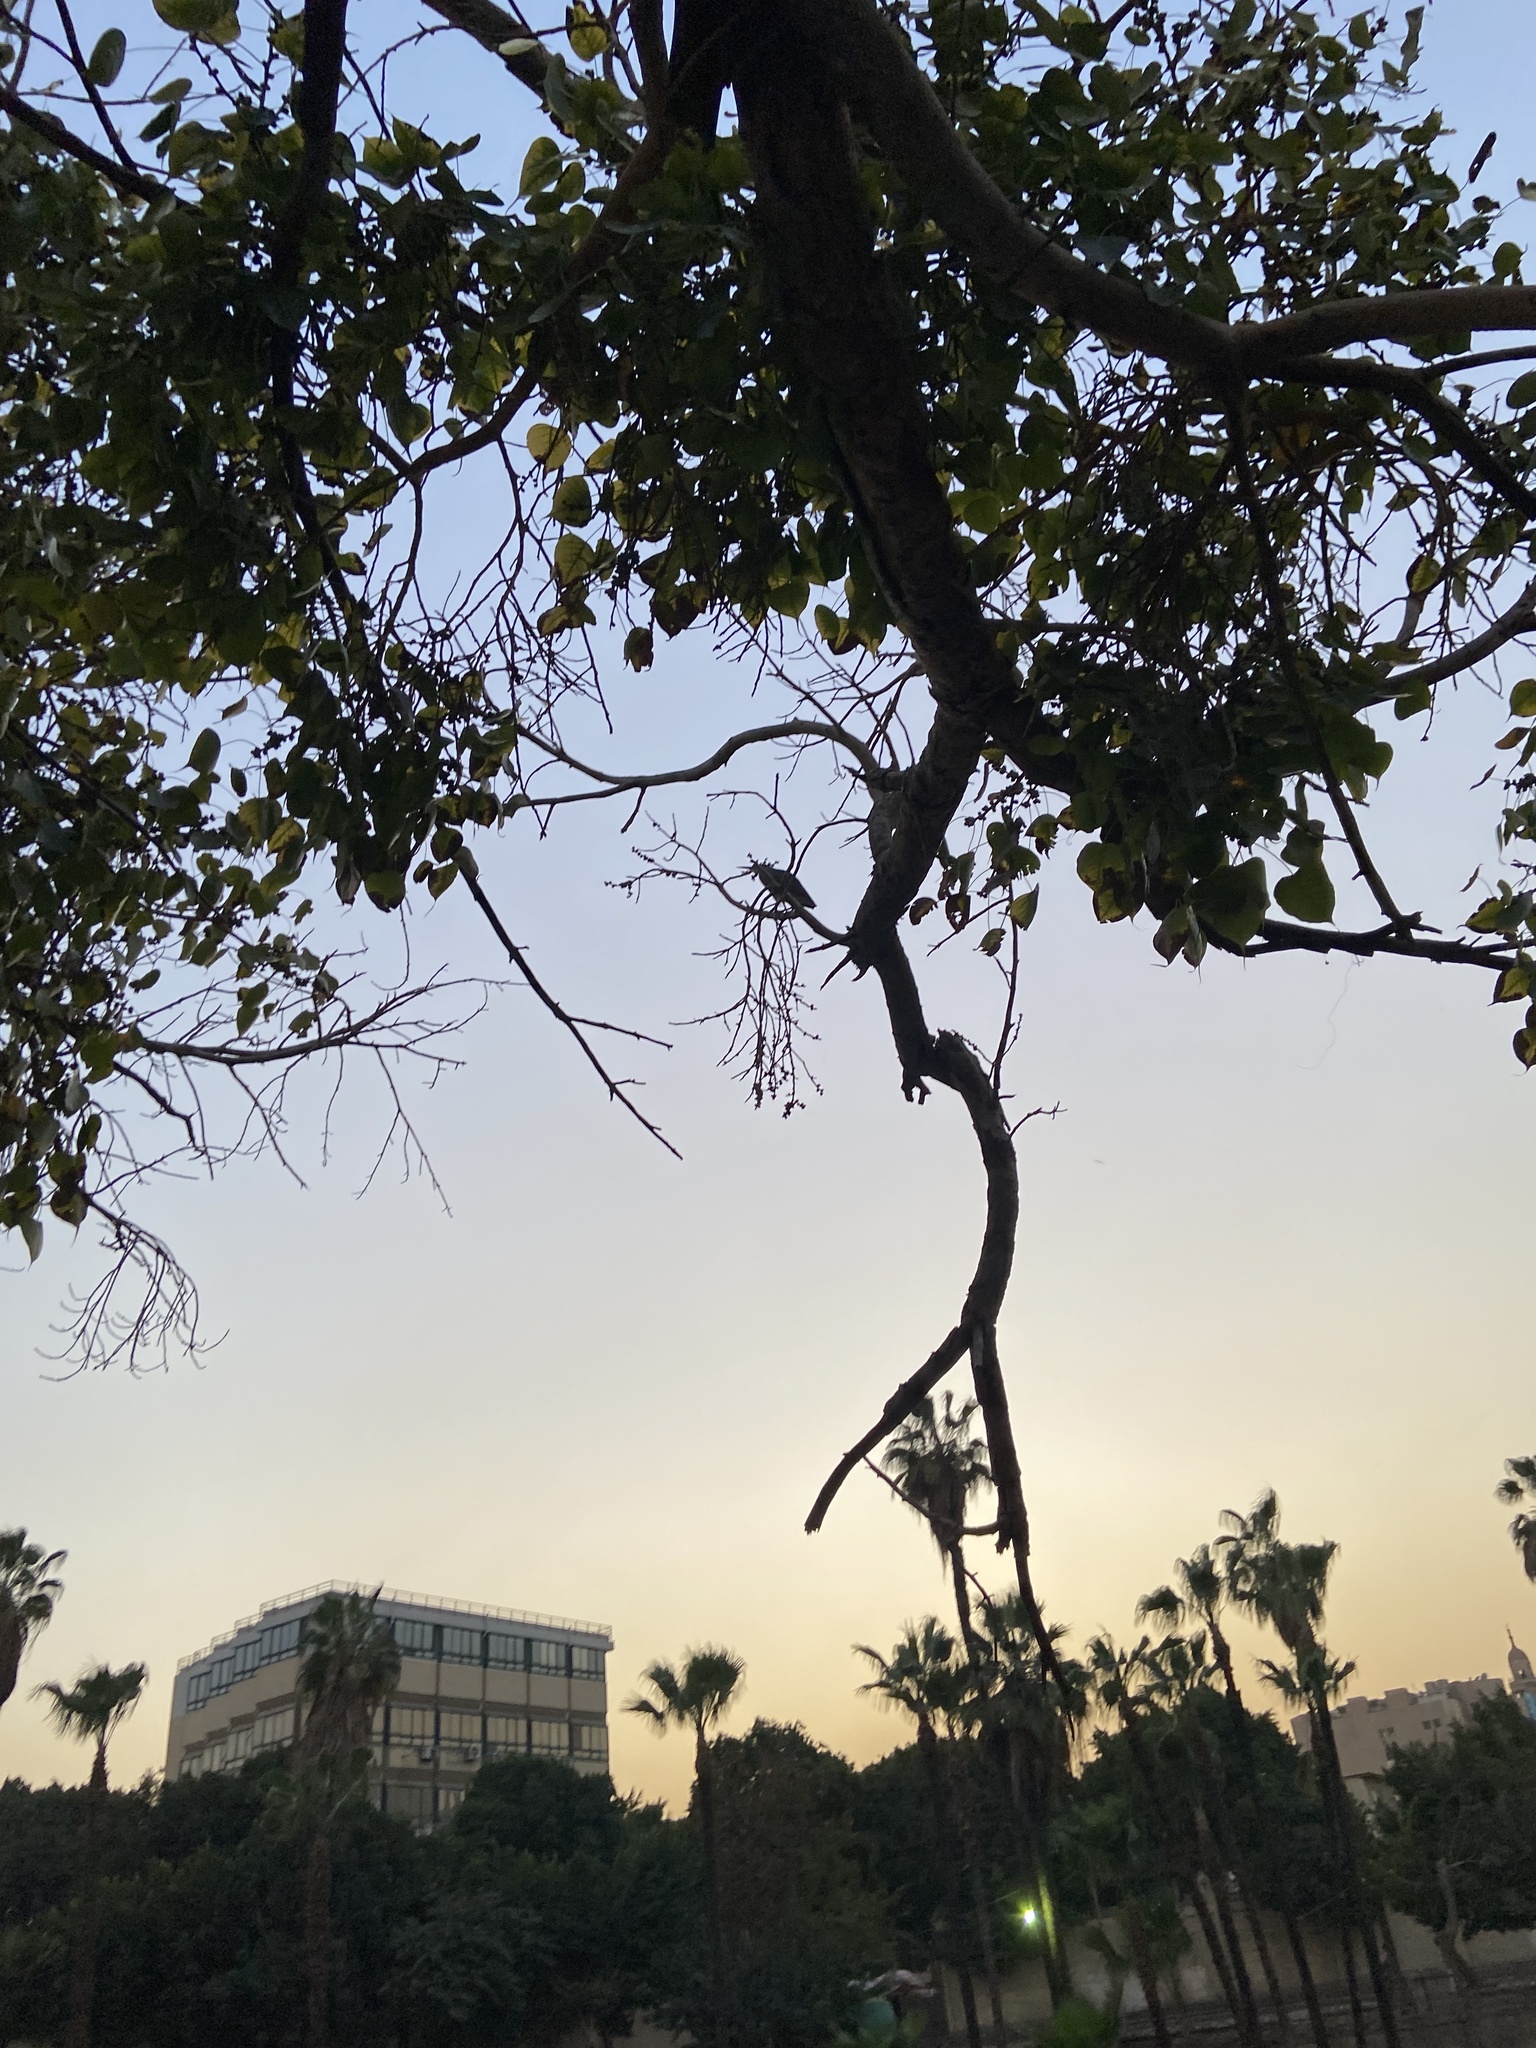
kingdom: Animalia
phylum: Chordata
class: Aves
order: Pelecaniformes
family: Ardeidae
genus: Butorides
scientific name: Butorides striata
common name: Striated heron
